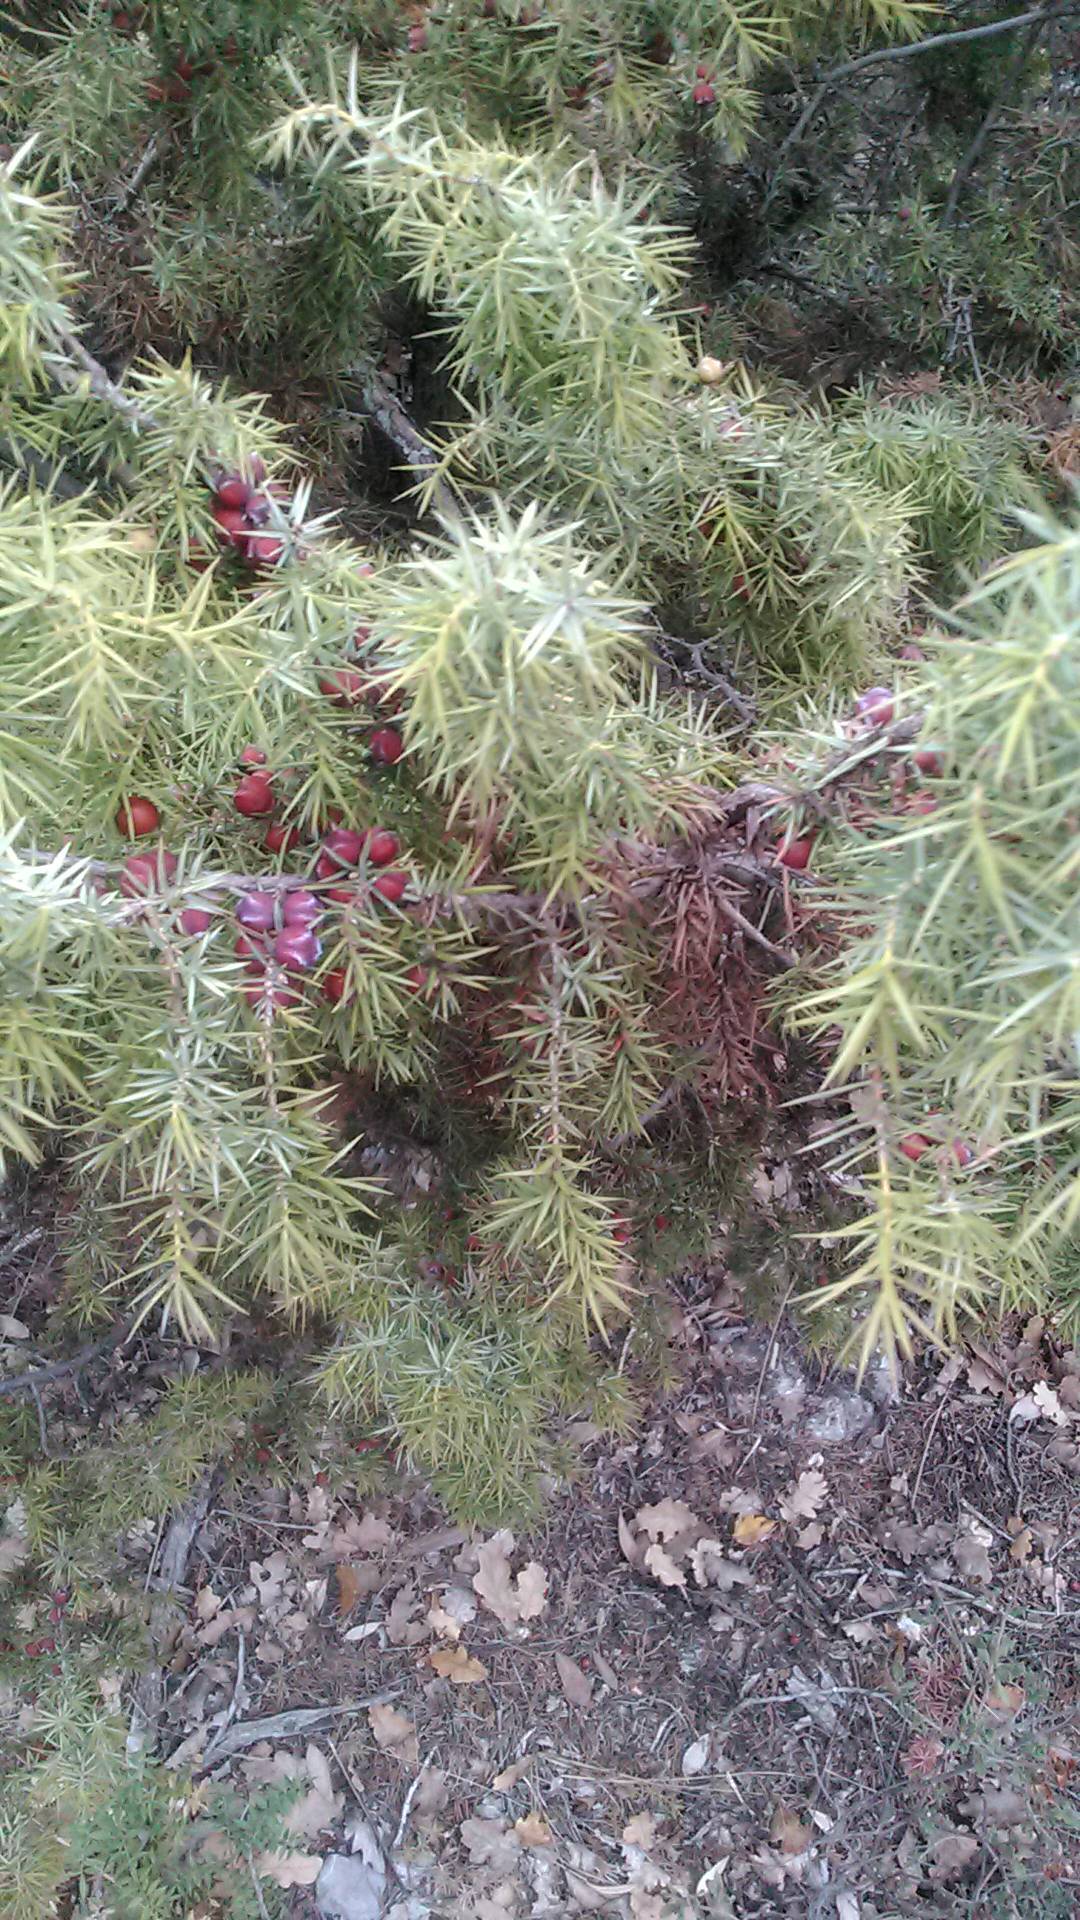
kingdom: Plantae
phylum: Tracheophyta
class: Pinopsida
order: Pinales
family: Cupressaceae
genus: Juniperus
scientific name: Juniperus oxycedrus
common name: Prickly juniper
